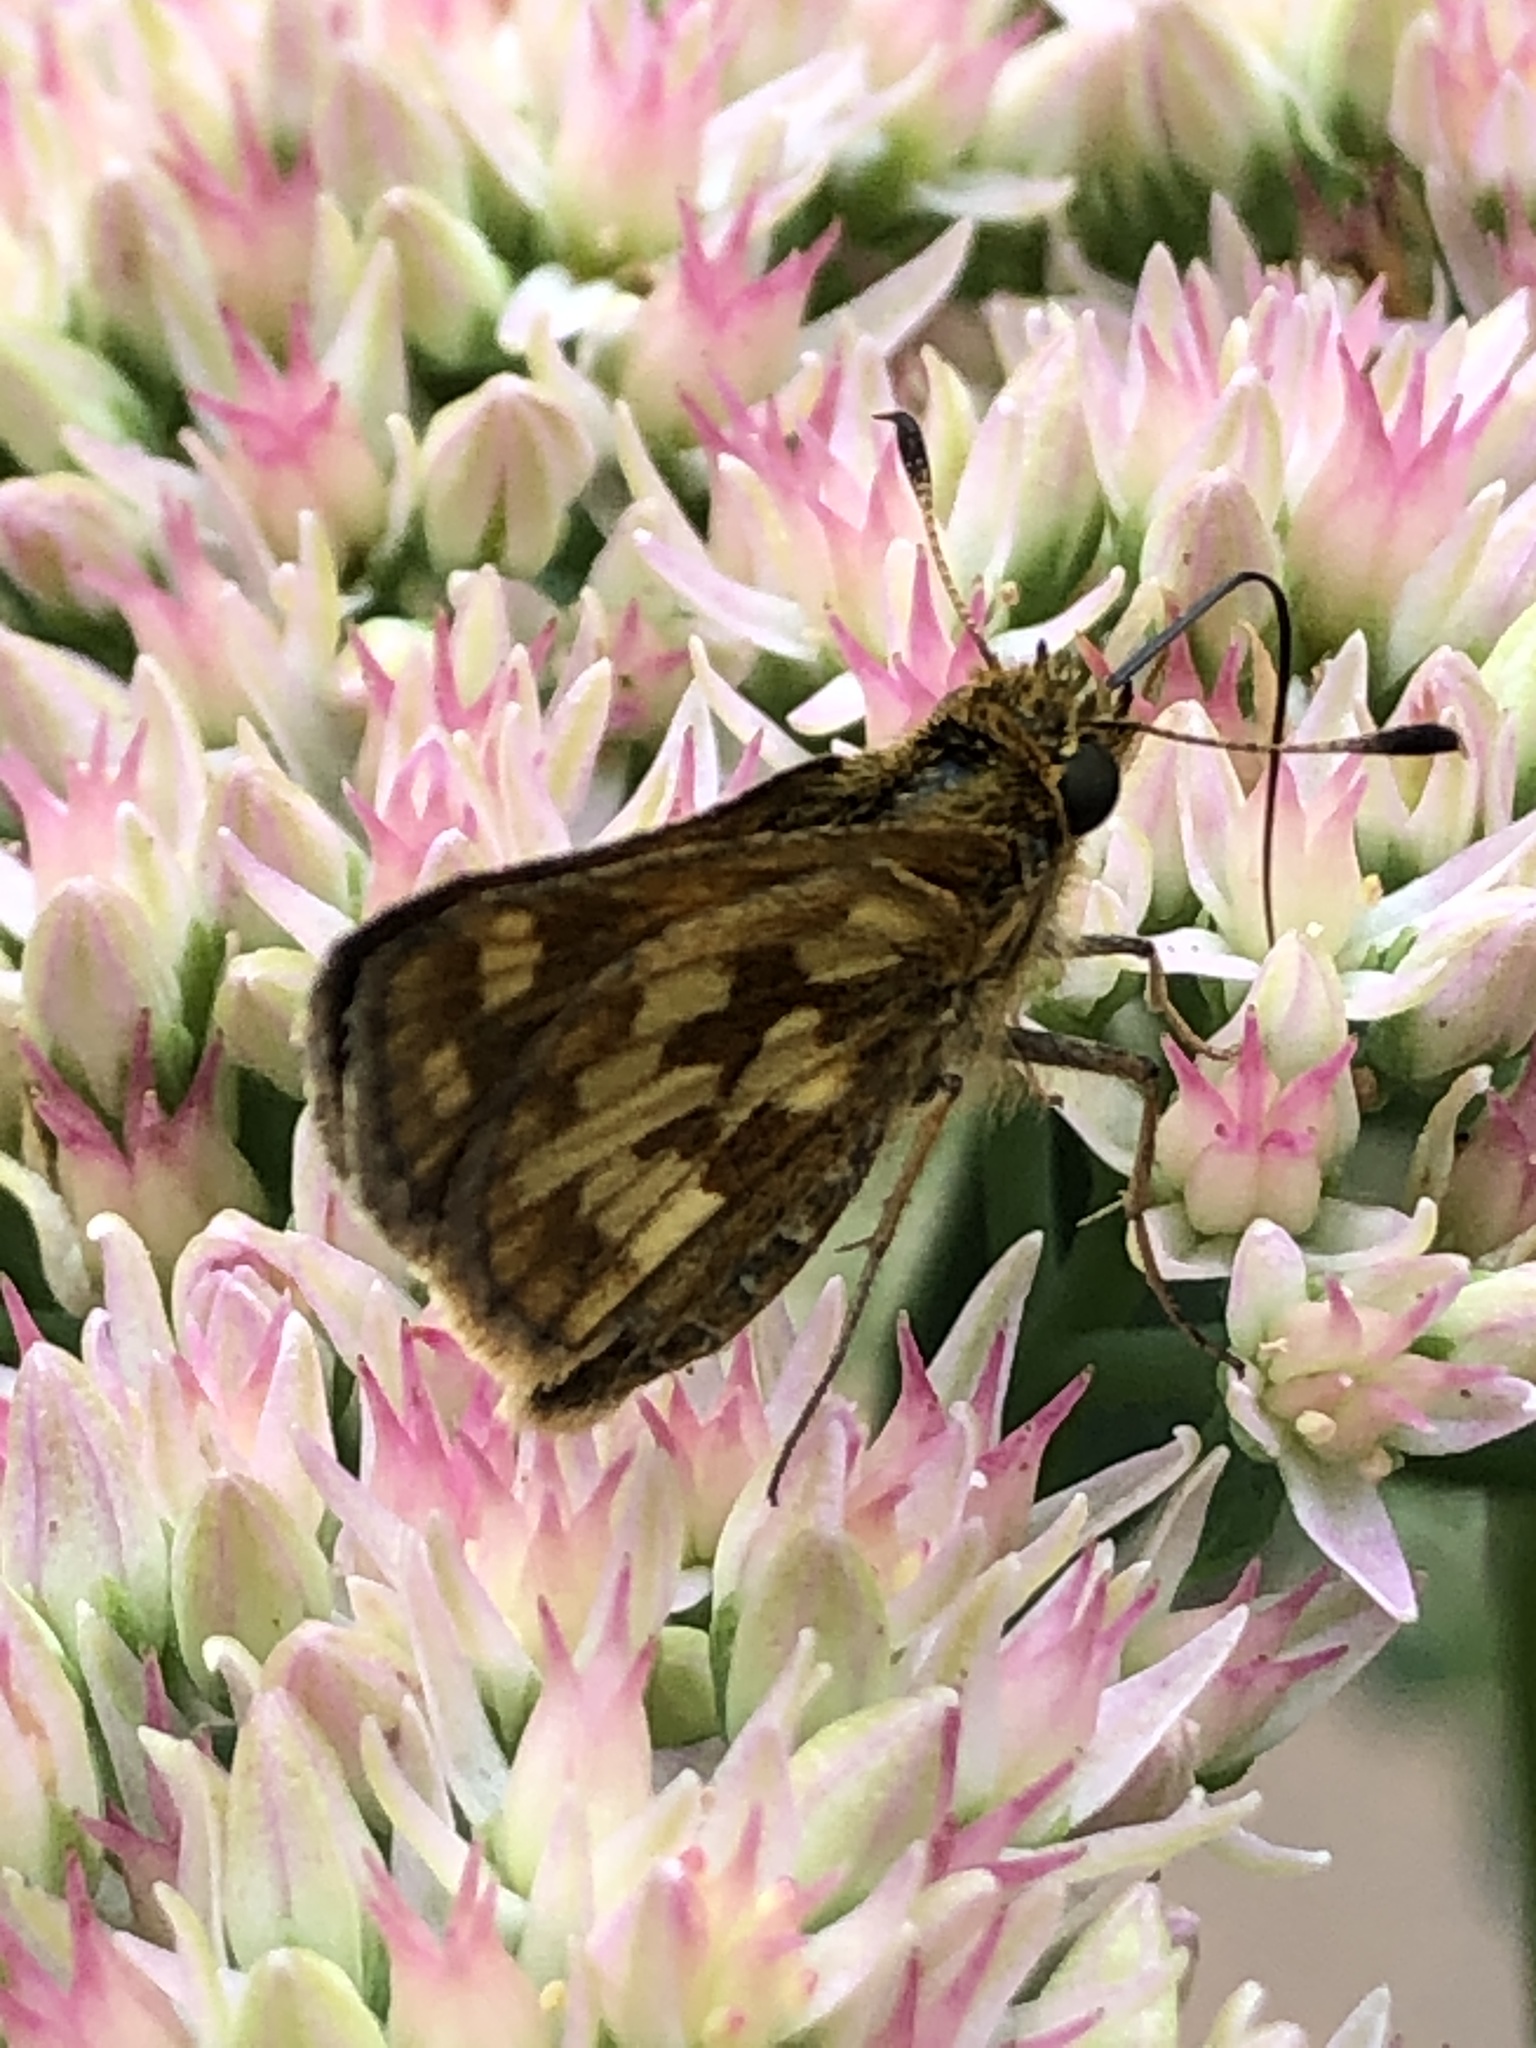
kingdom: Animalia
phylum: Arthropoda
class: Insecta
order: Lepidoptera
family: Hesperiidae
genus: Polites
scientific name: Polites coras
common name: Peck's skipper
